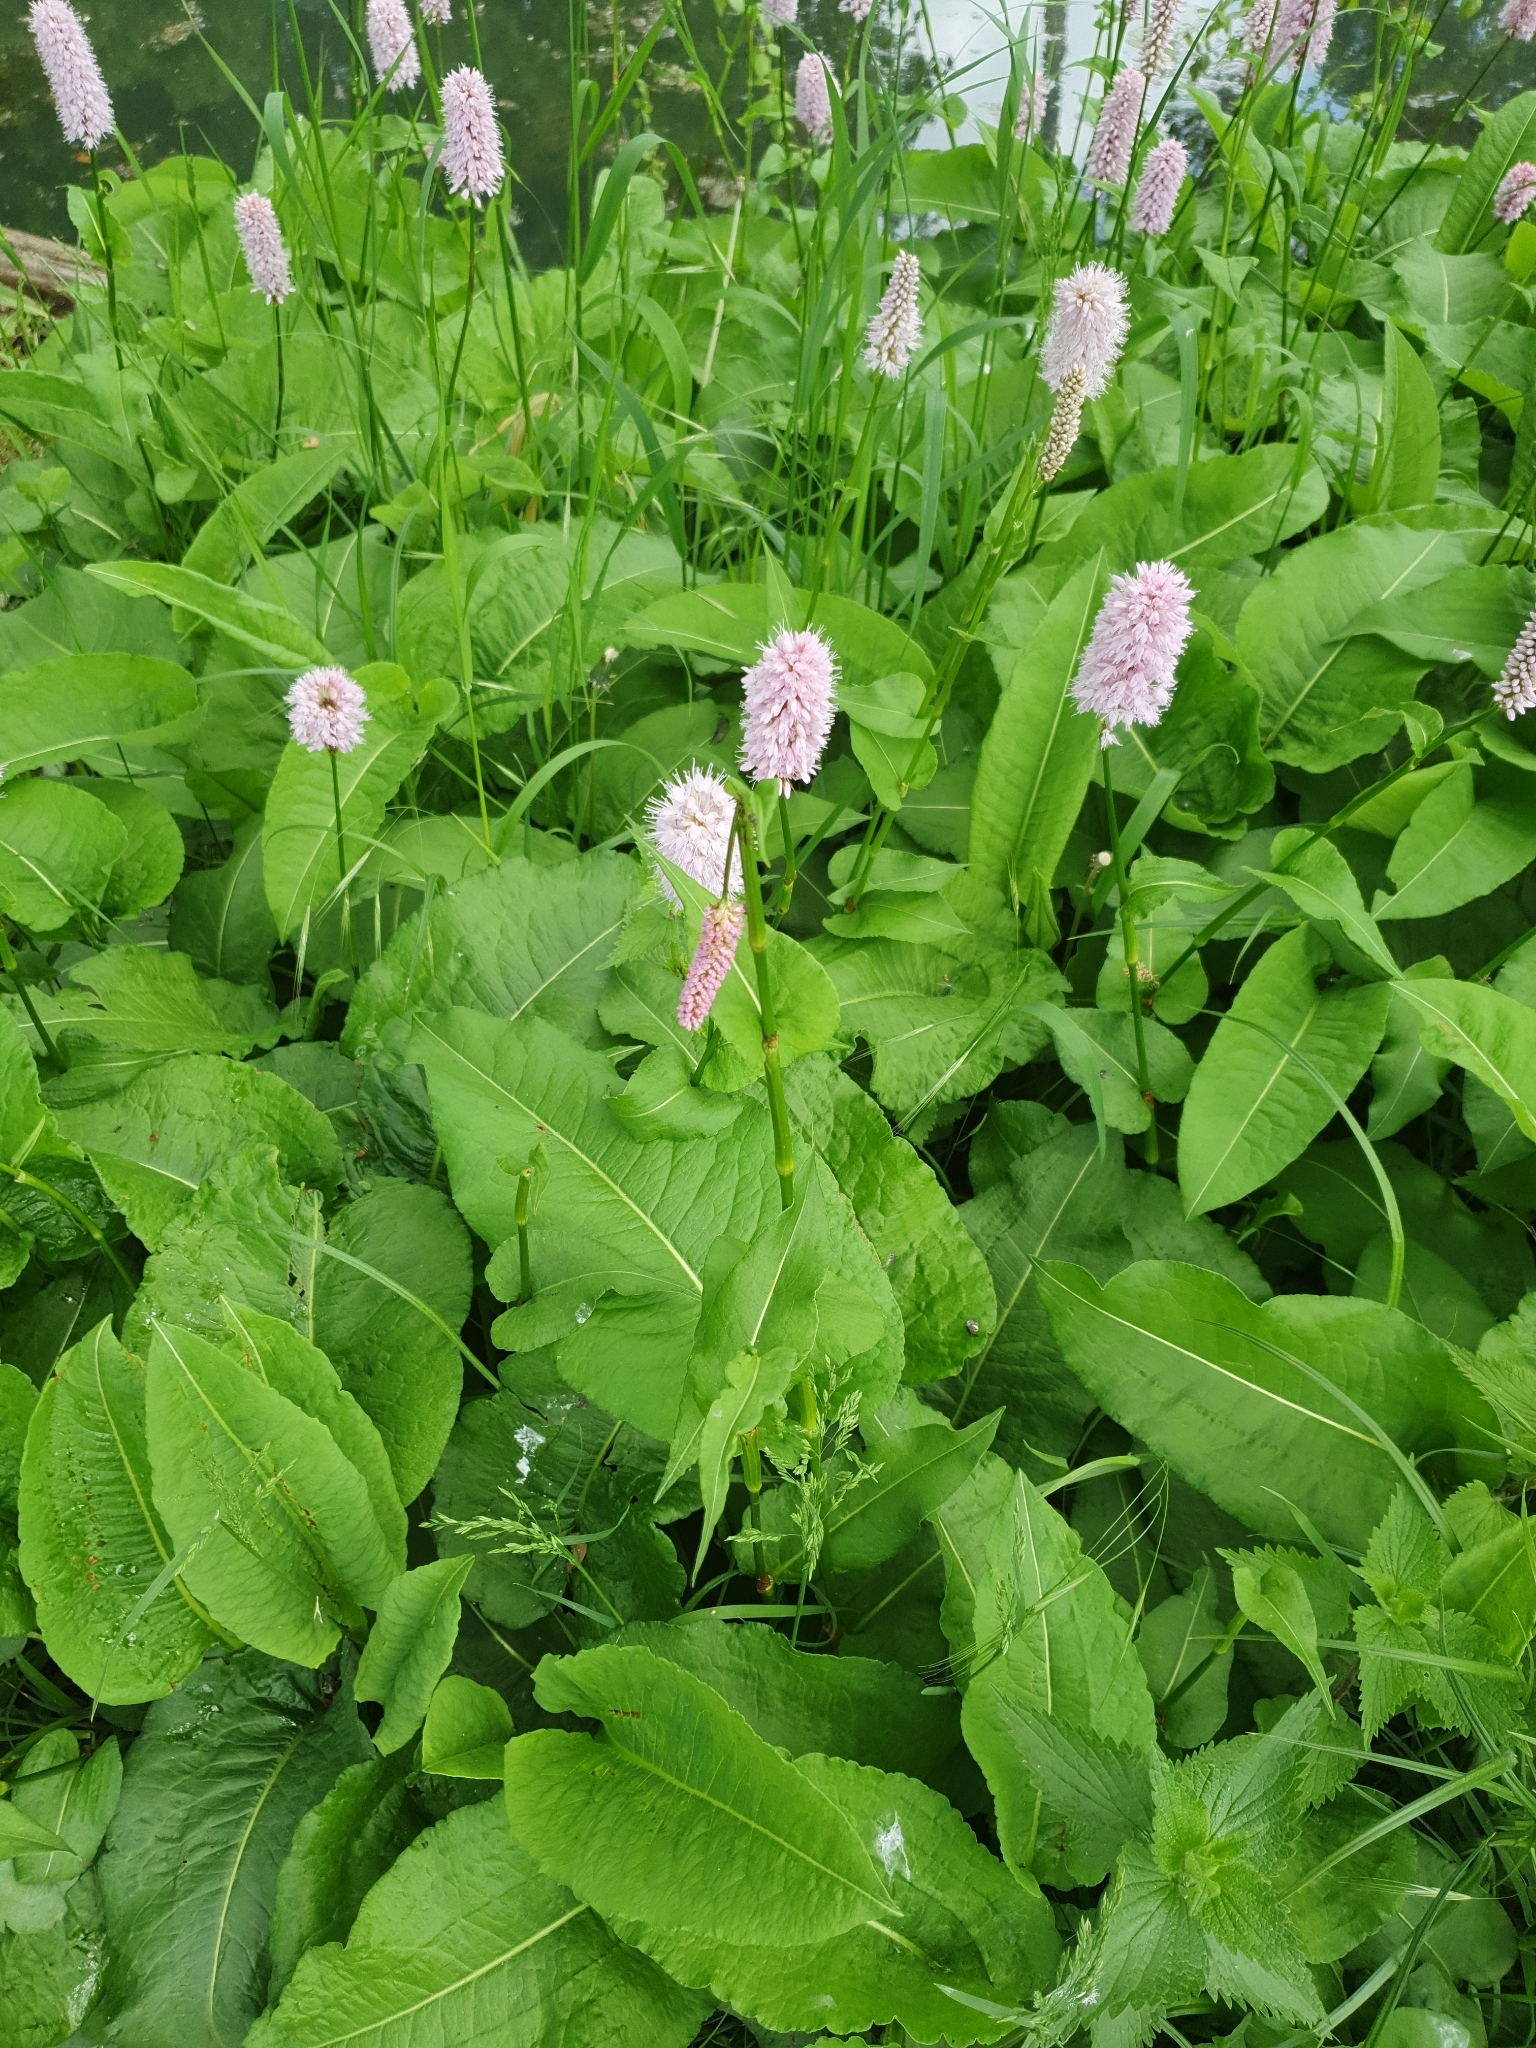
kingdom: Plantae
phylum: Tracheophyta
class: Magnoliopsida
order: Caryophyllales
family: Polygonaceae
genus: Bistorta
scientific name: Bistorta officinalis
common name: Common bistort
